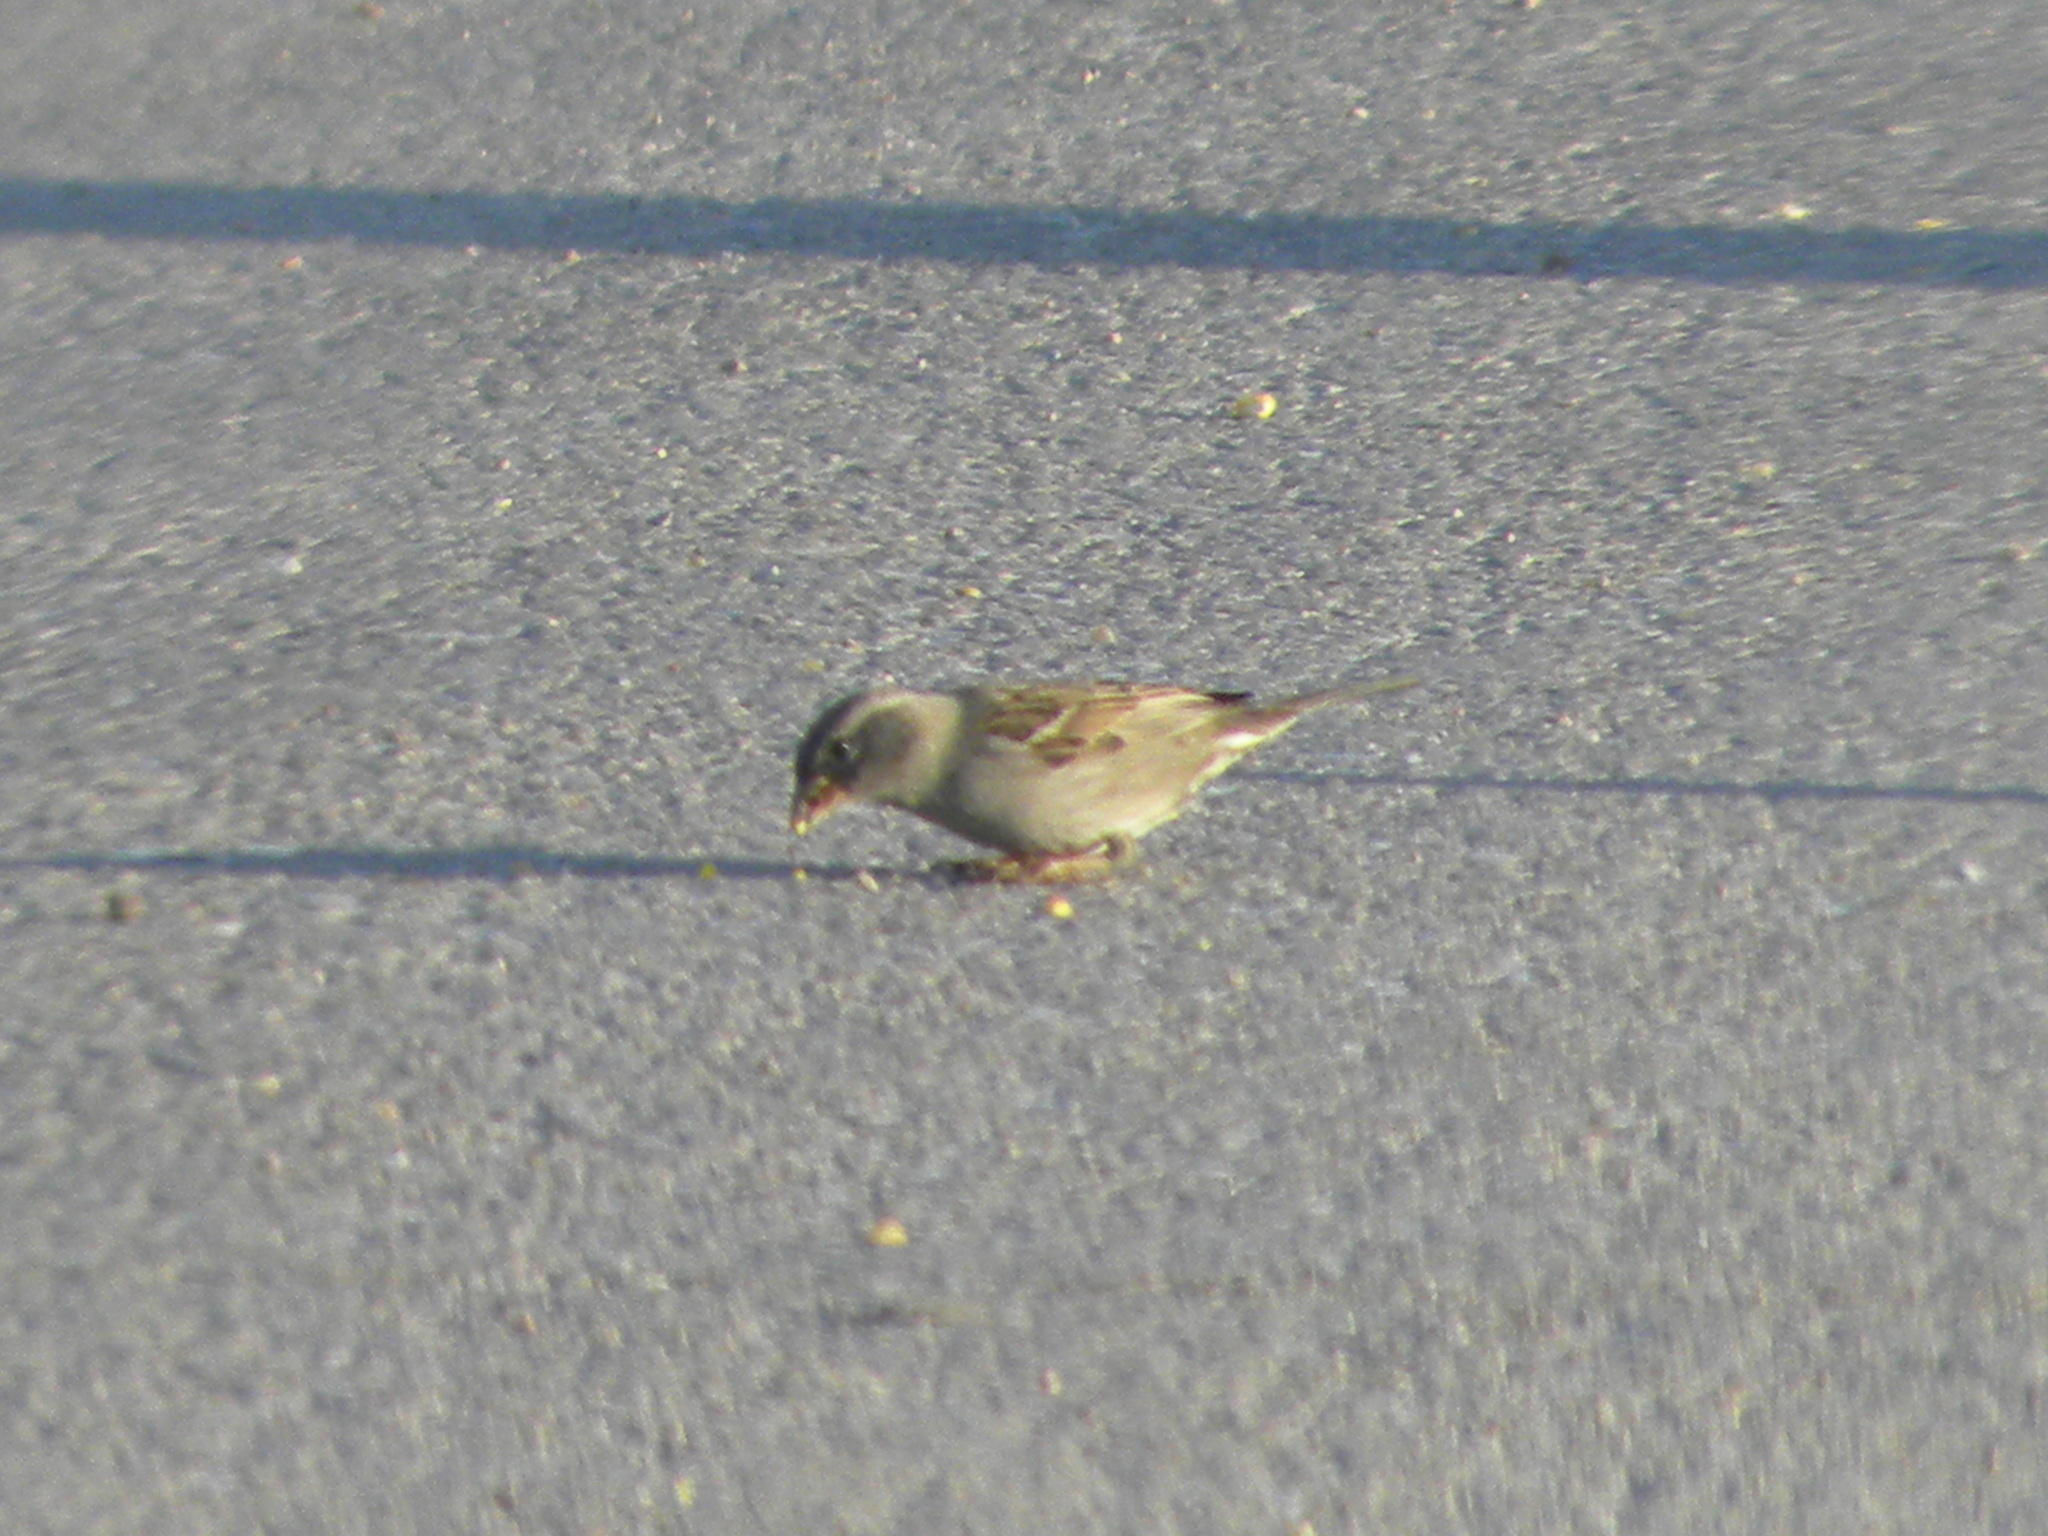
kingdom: Animalia
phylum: Chordata
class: Aves
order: Passeriformes
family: Passeridae
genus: Passer
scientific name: Passer domesticus
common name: House sparrow
